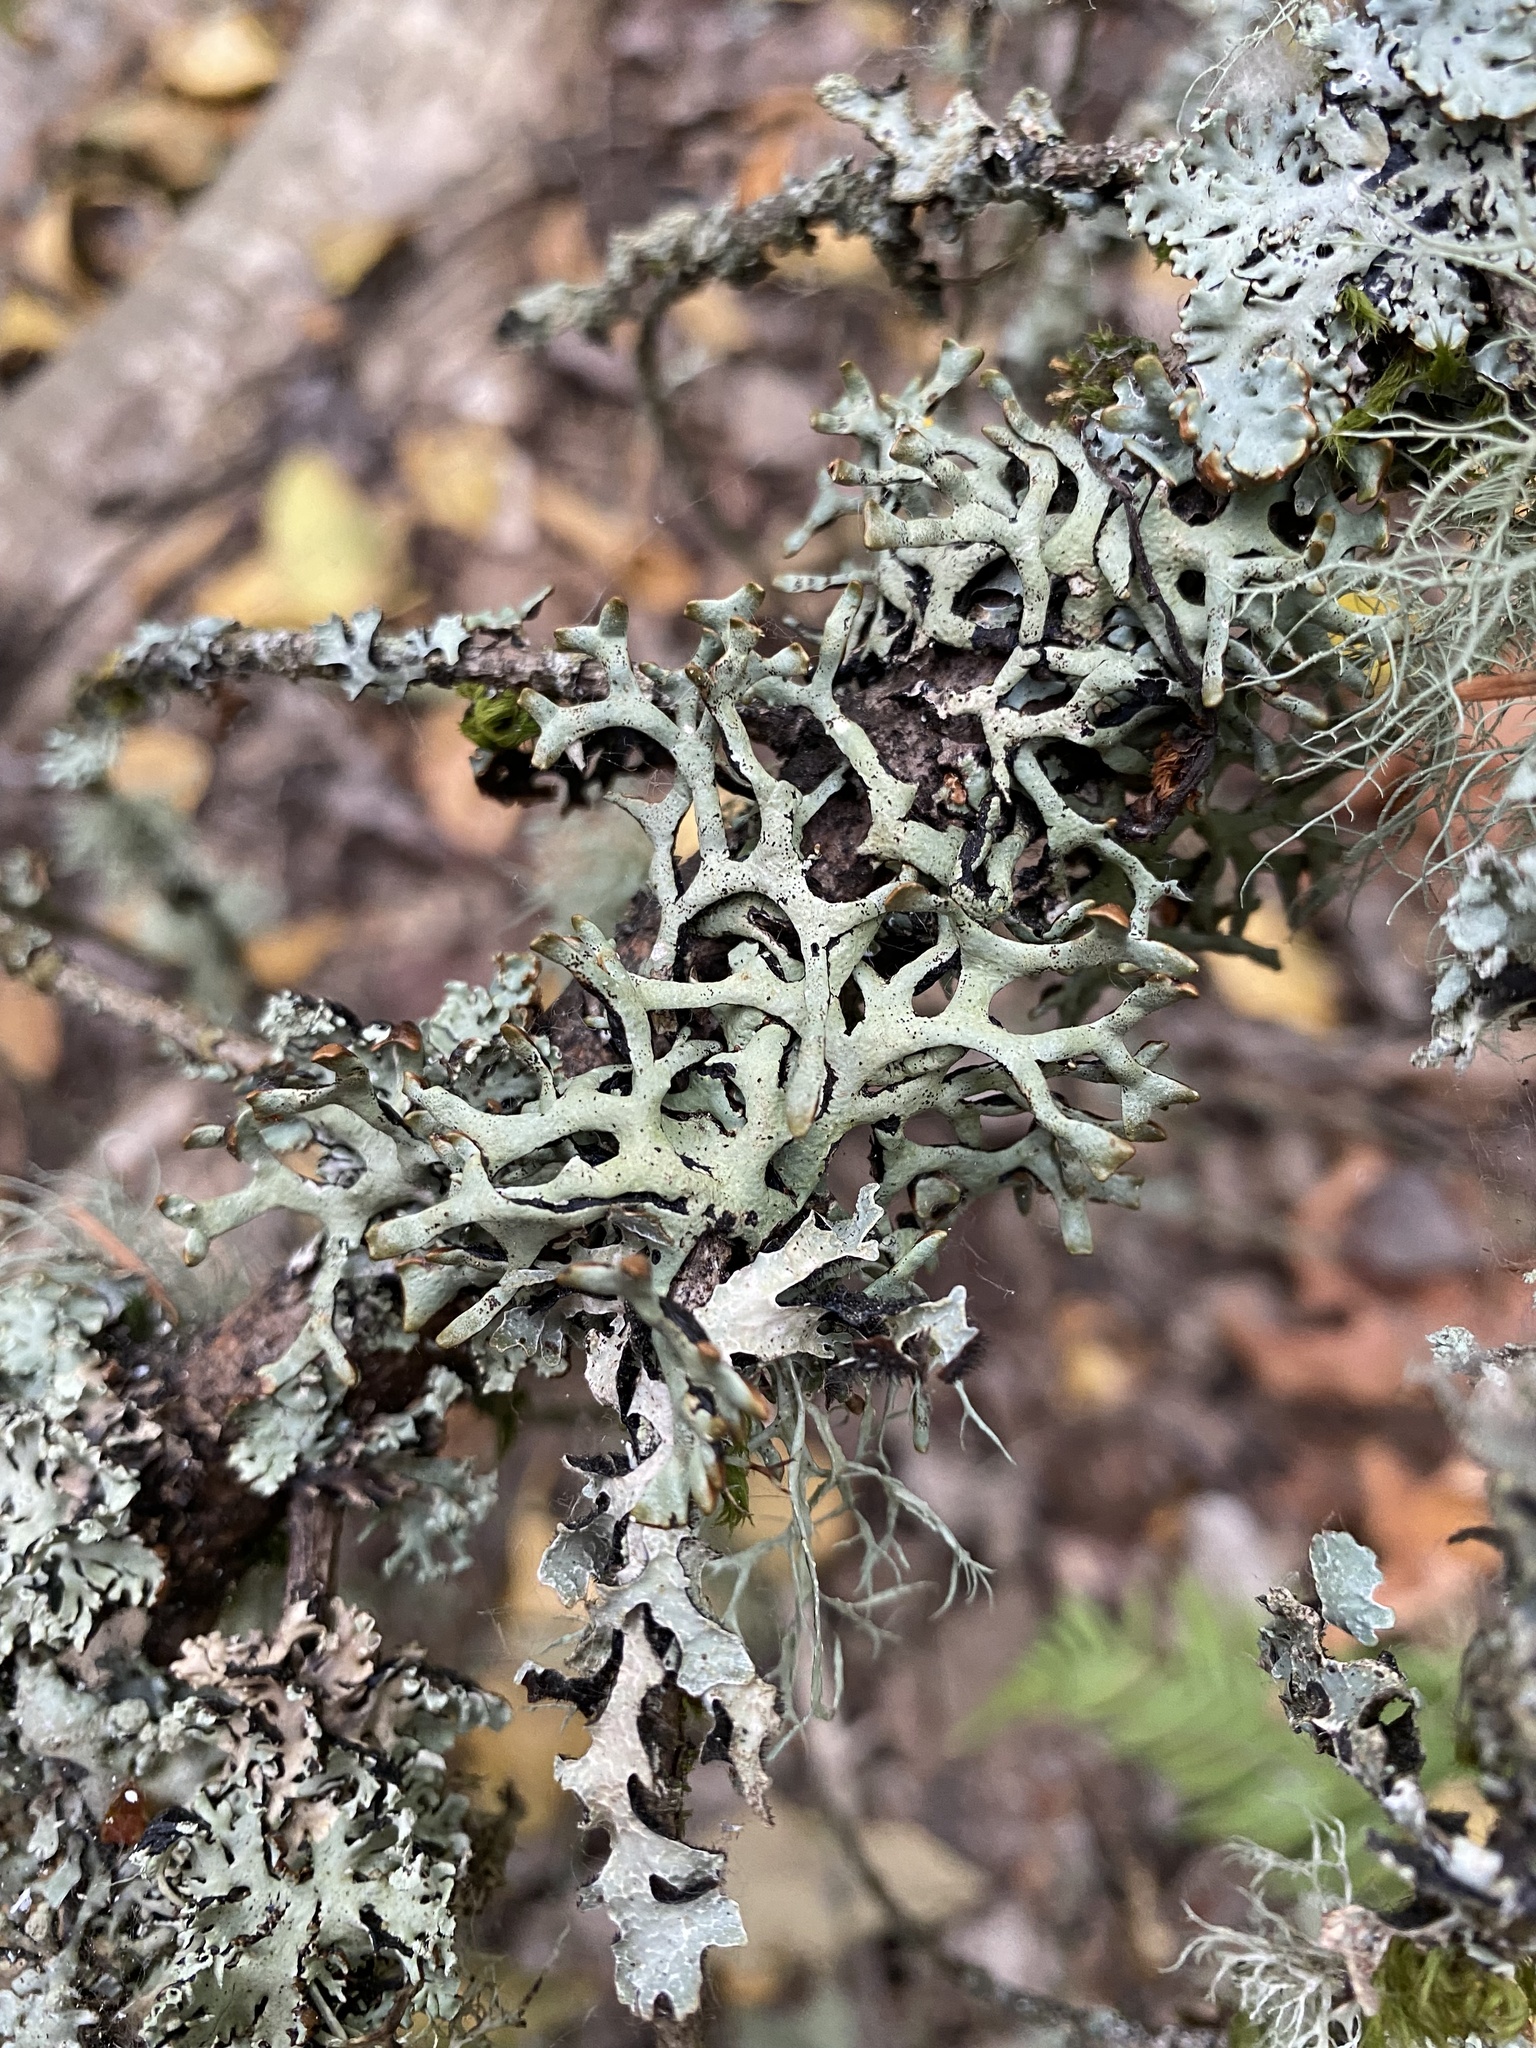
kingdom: Fungi
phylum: Ascomycota
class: Lecanoromycetes
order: Lecanorales
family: Parmeliaceae
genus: Hypogymnia
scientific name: Hypogymnia inactiva
